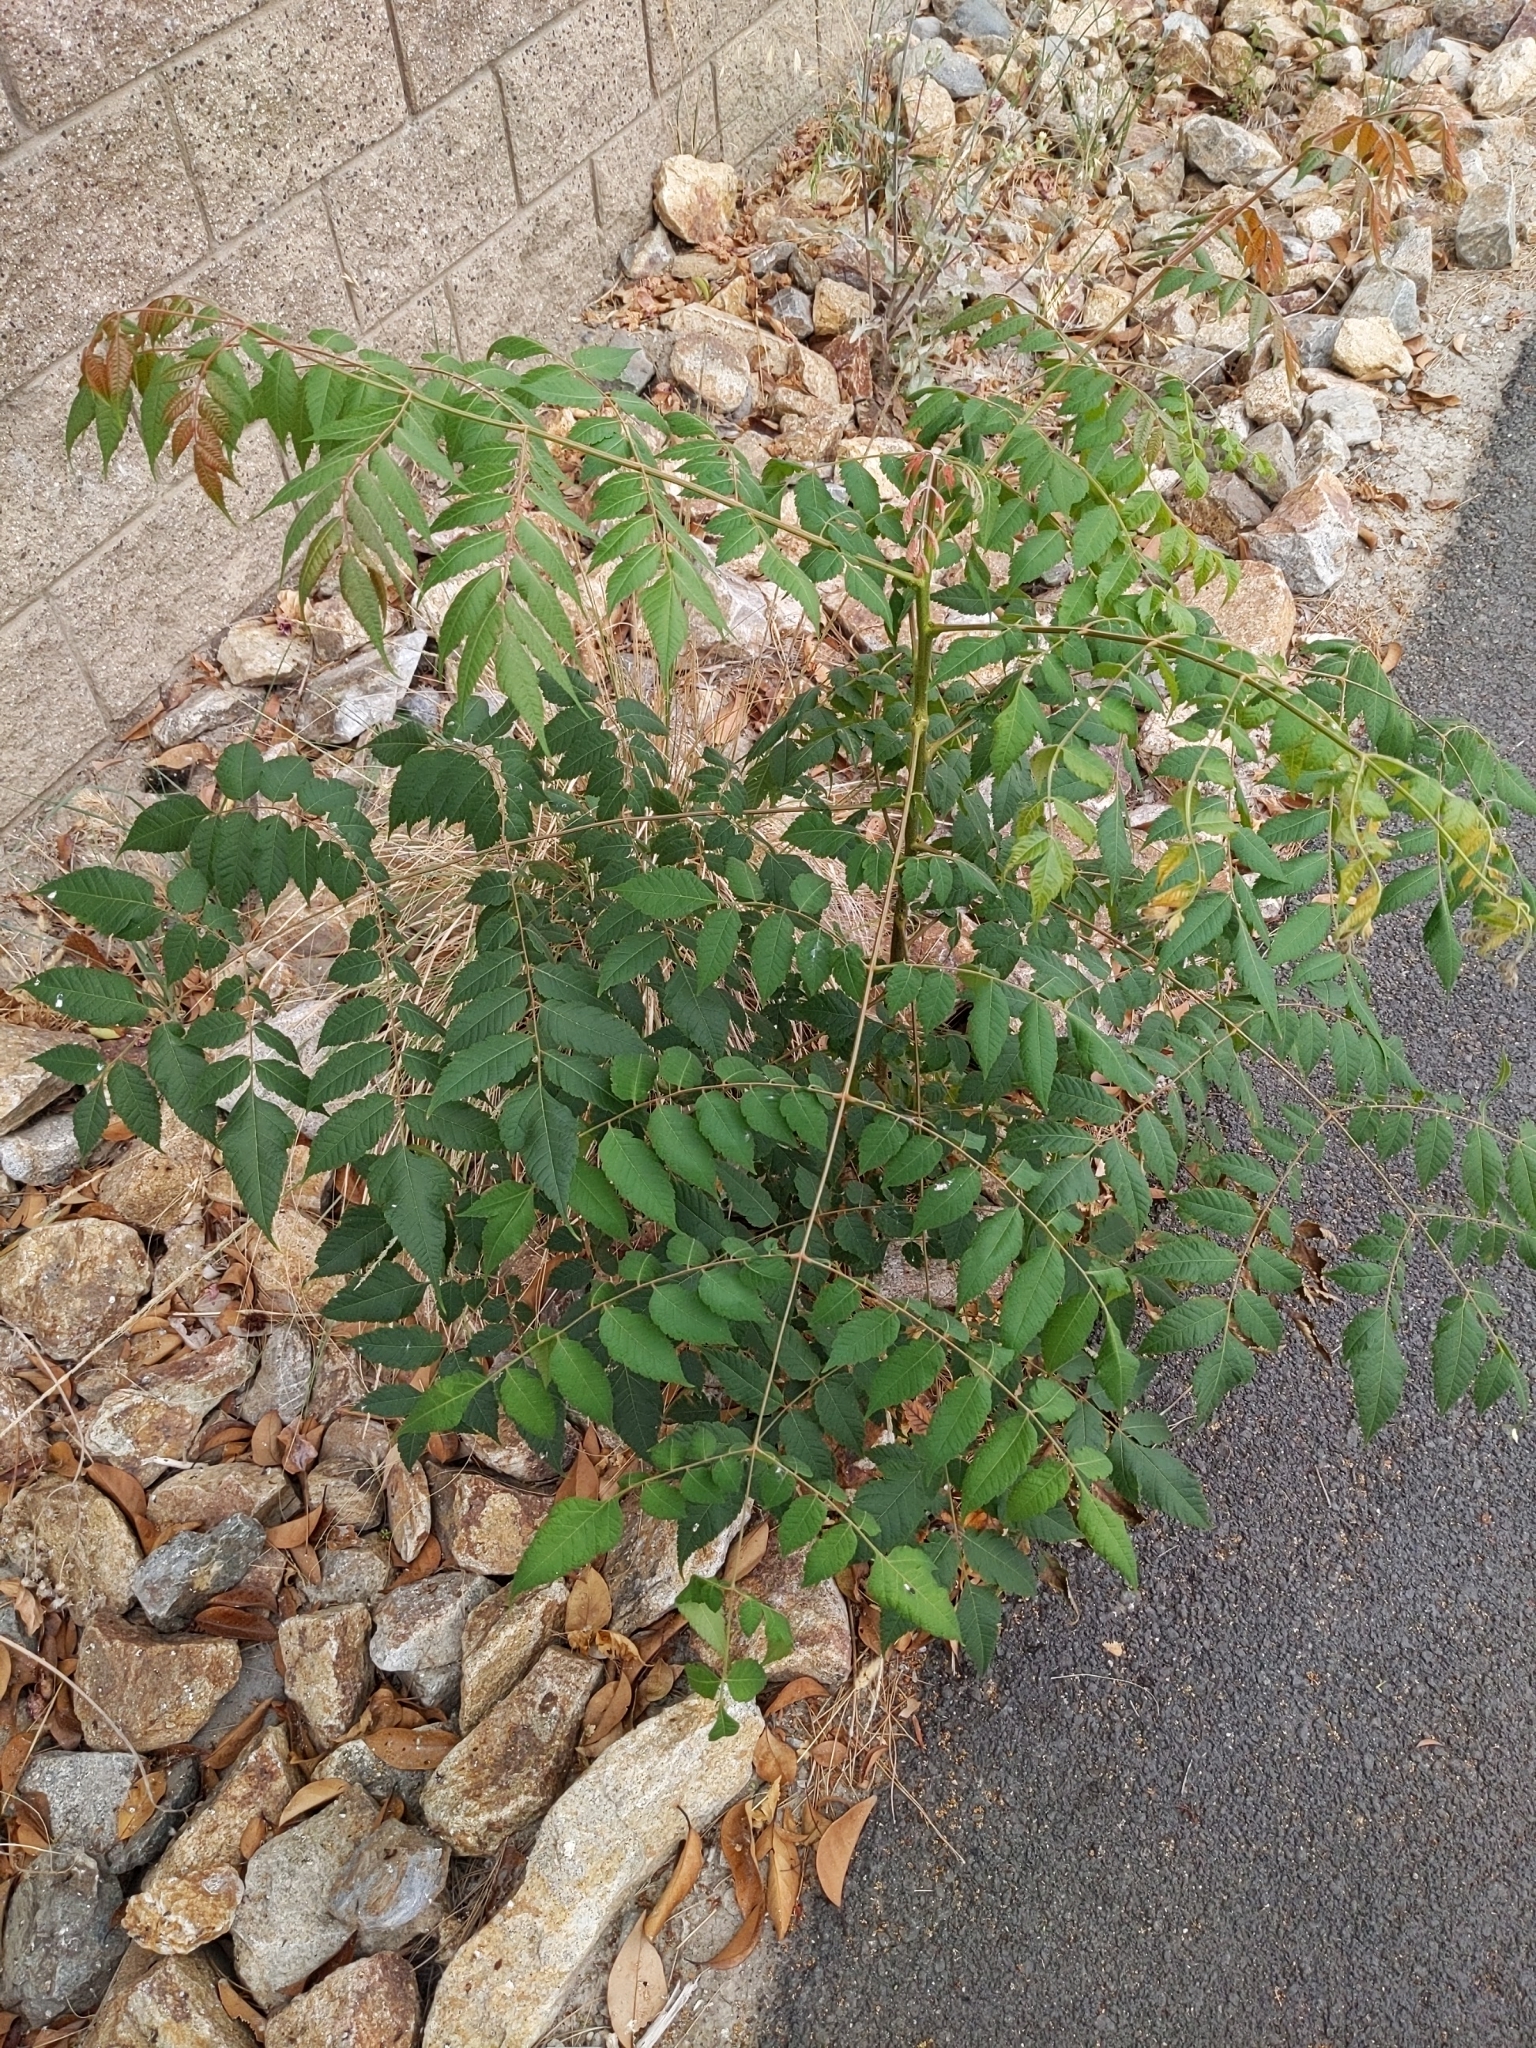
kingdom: Plantae
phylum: Tracheophyta
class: Magnoliopsida
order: Sapindales
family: Sapindaceae
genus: Koelreuteria
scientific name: Koelreuteria bipinnata
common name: Goldenrain tree
